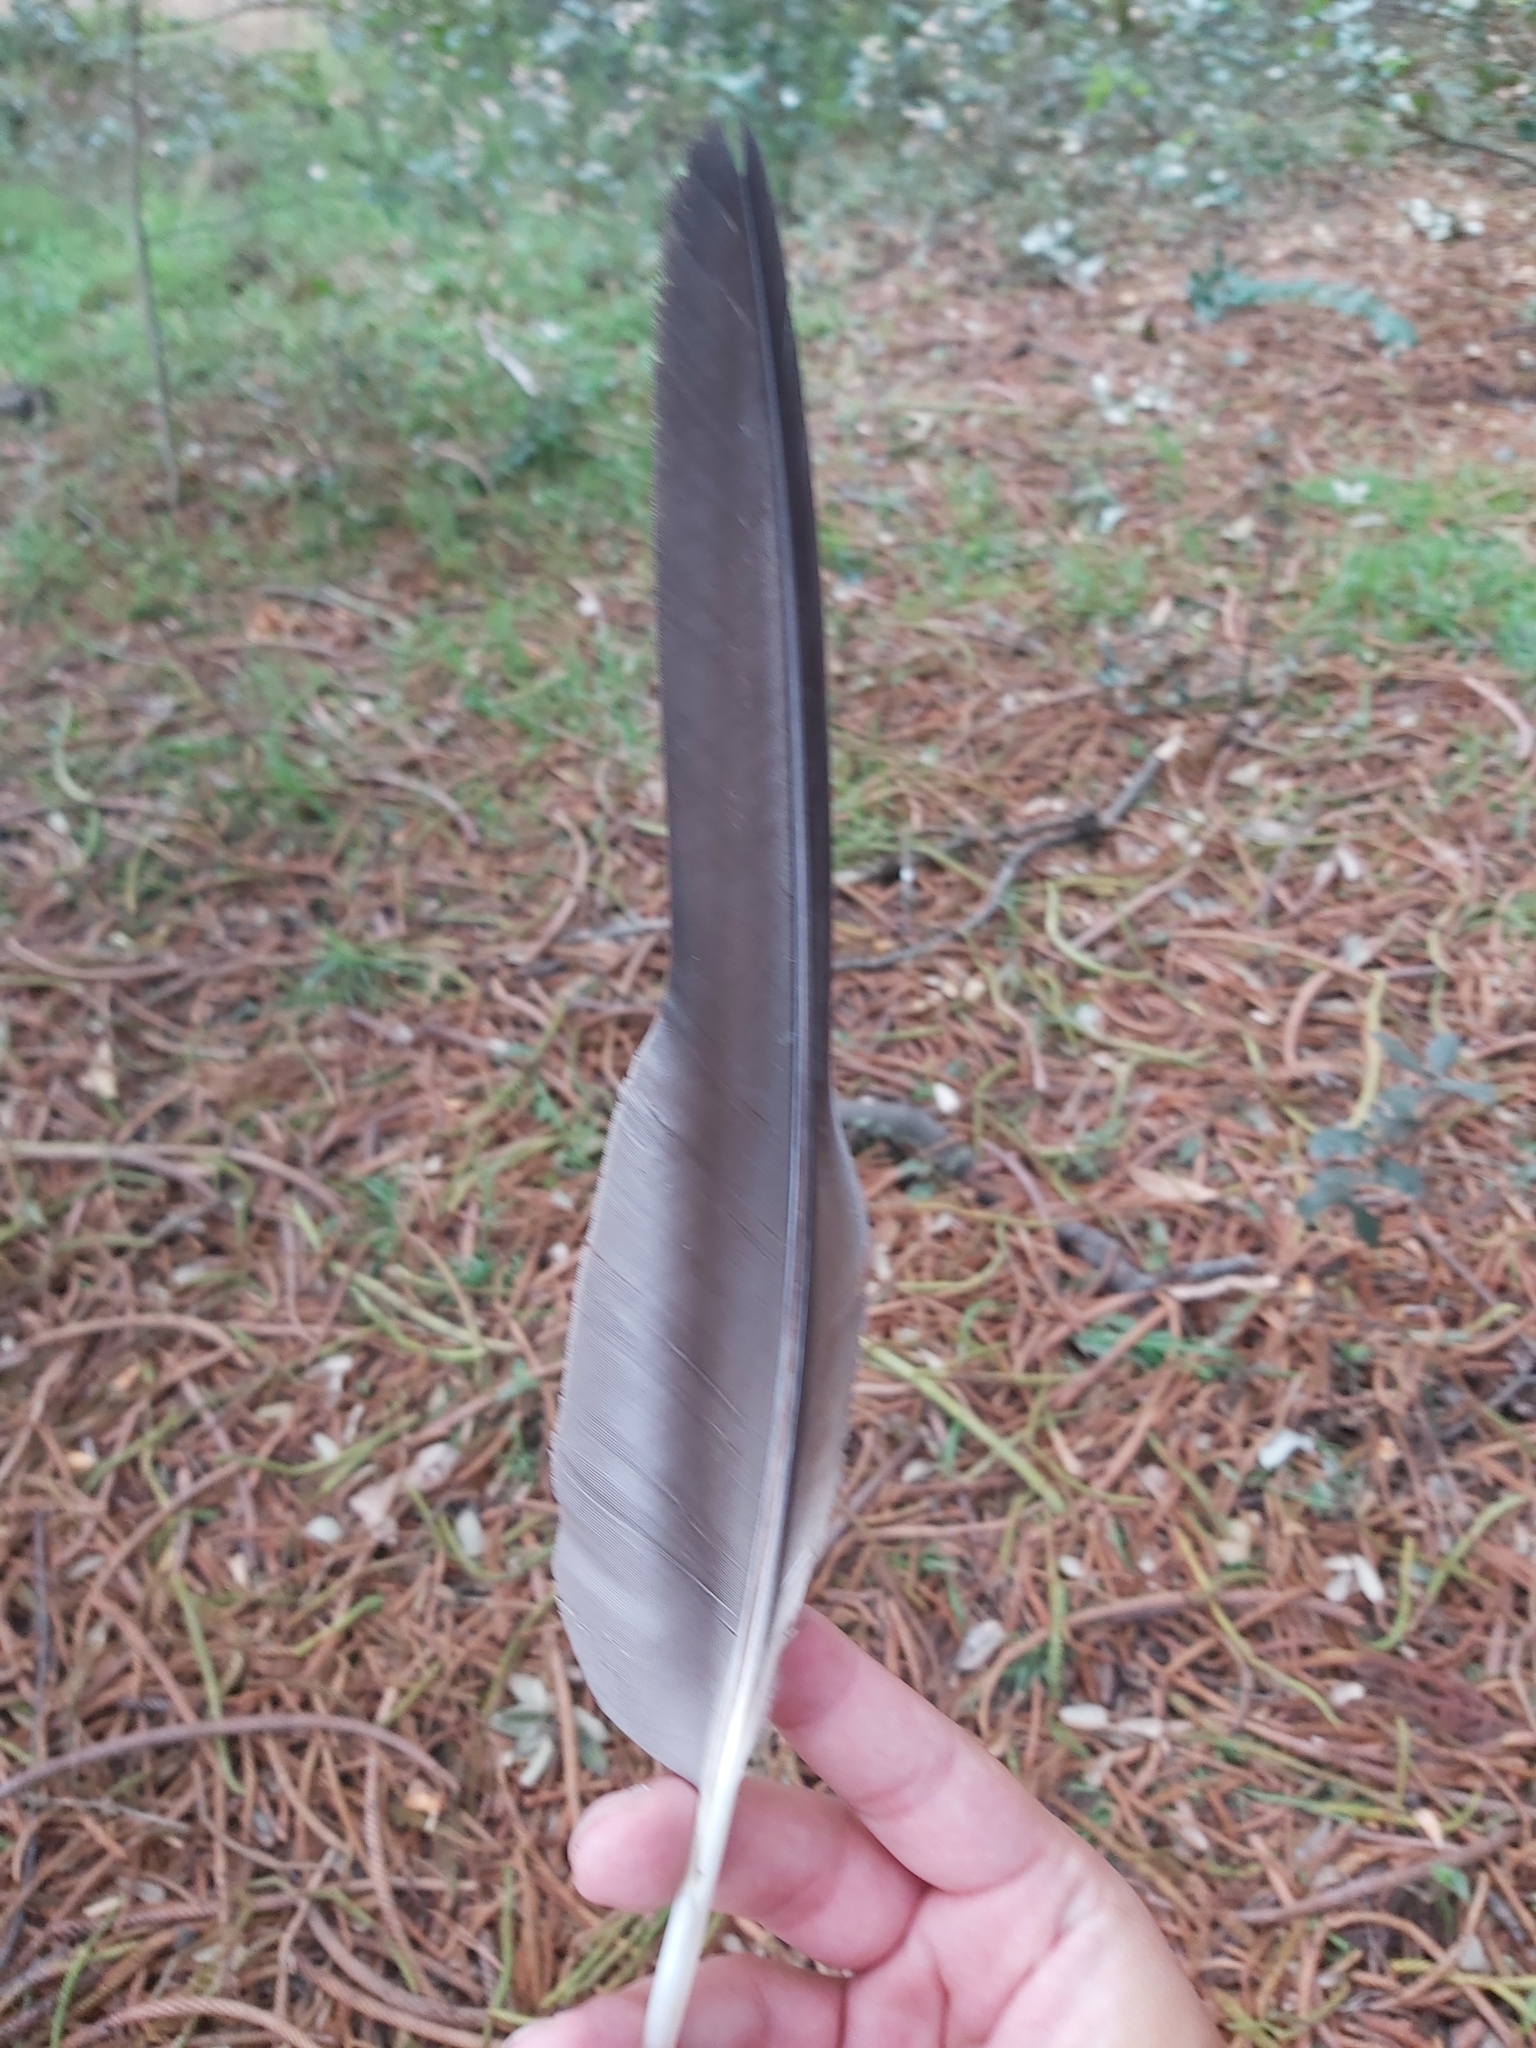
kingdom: Animalia
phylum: Chordata
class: Aves
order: Psittaciformes
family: Cacatuidae
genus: Zanda
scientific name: Zanda funerea
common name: Yellow-tailed black-cockatoo
